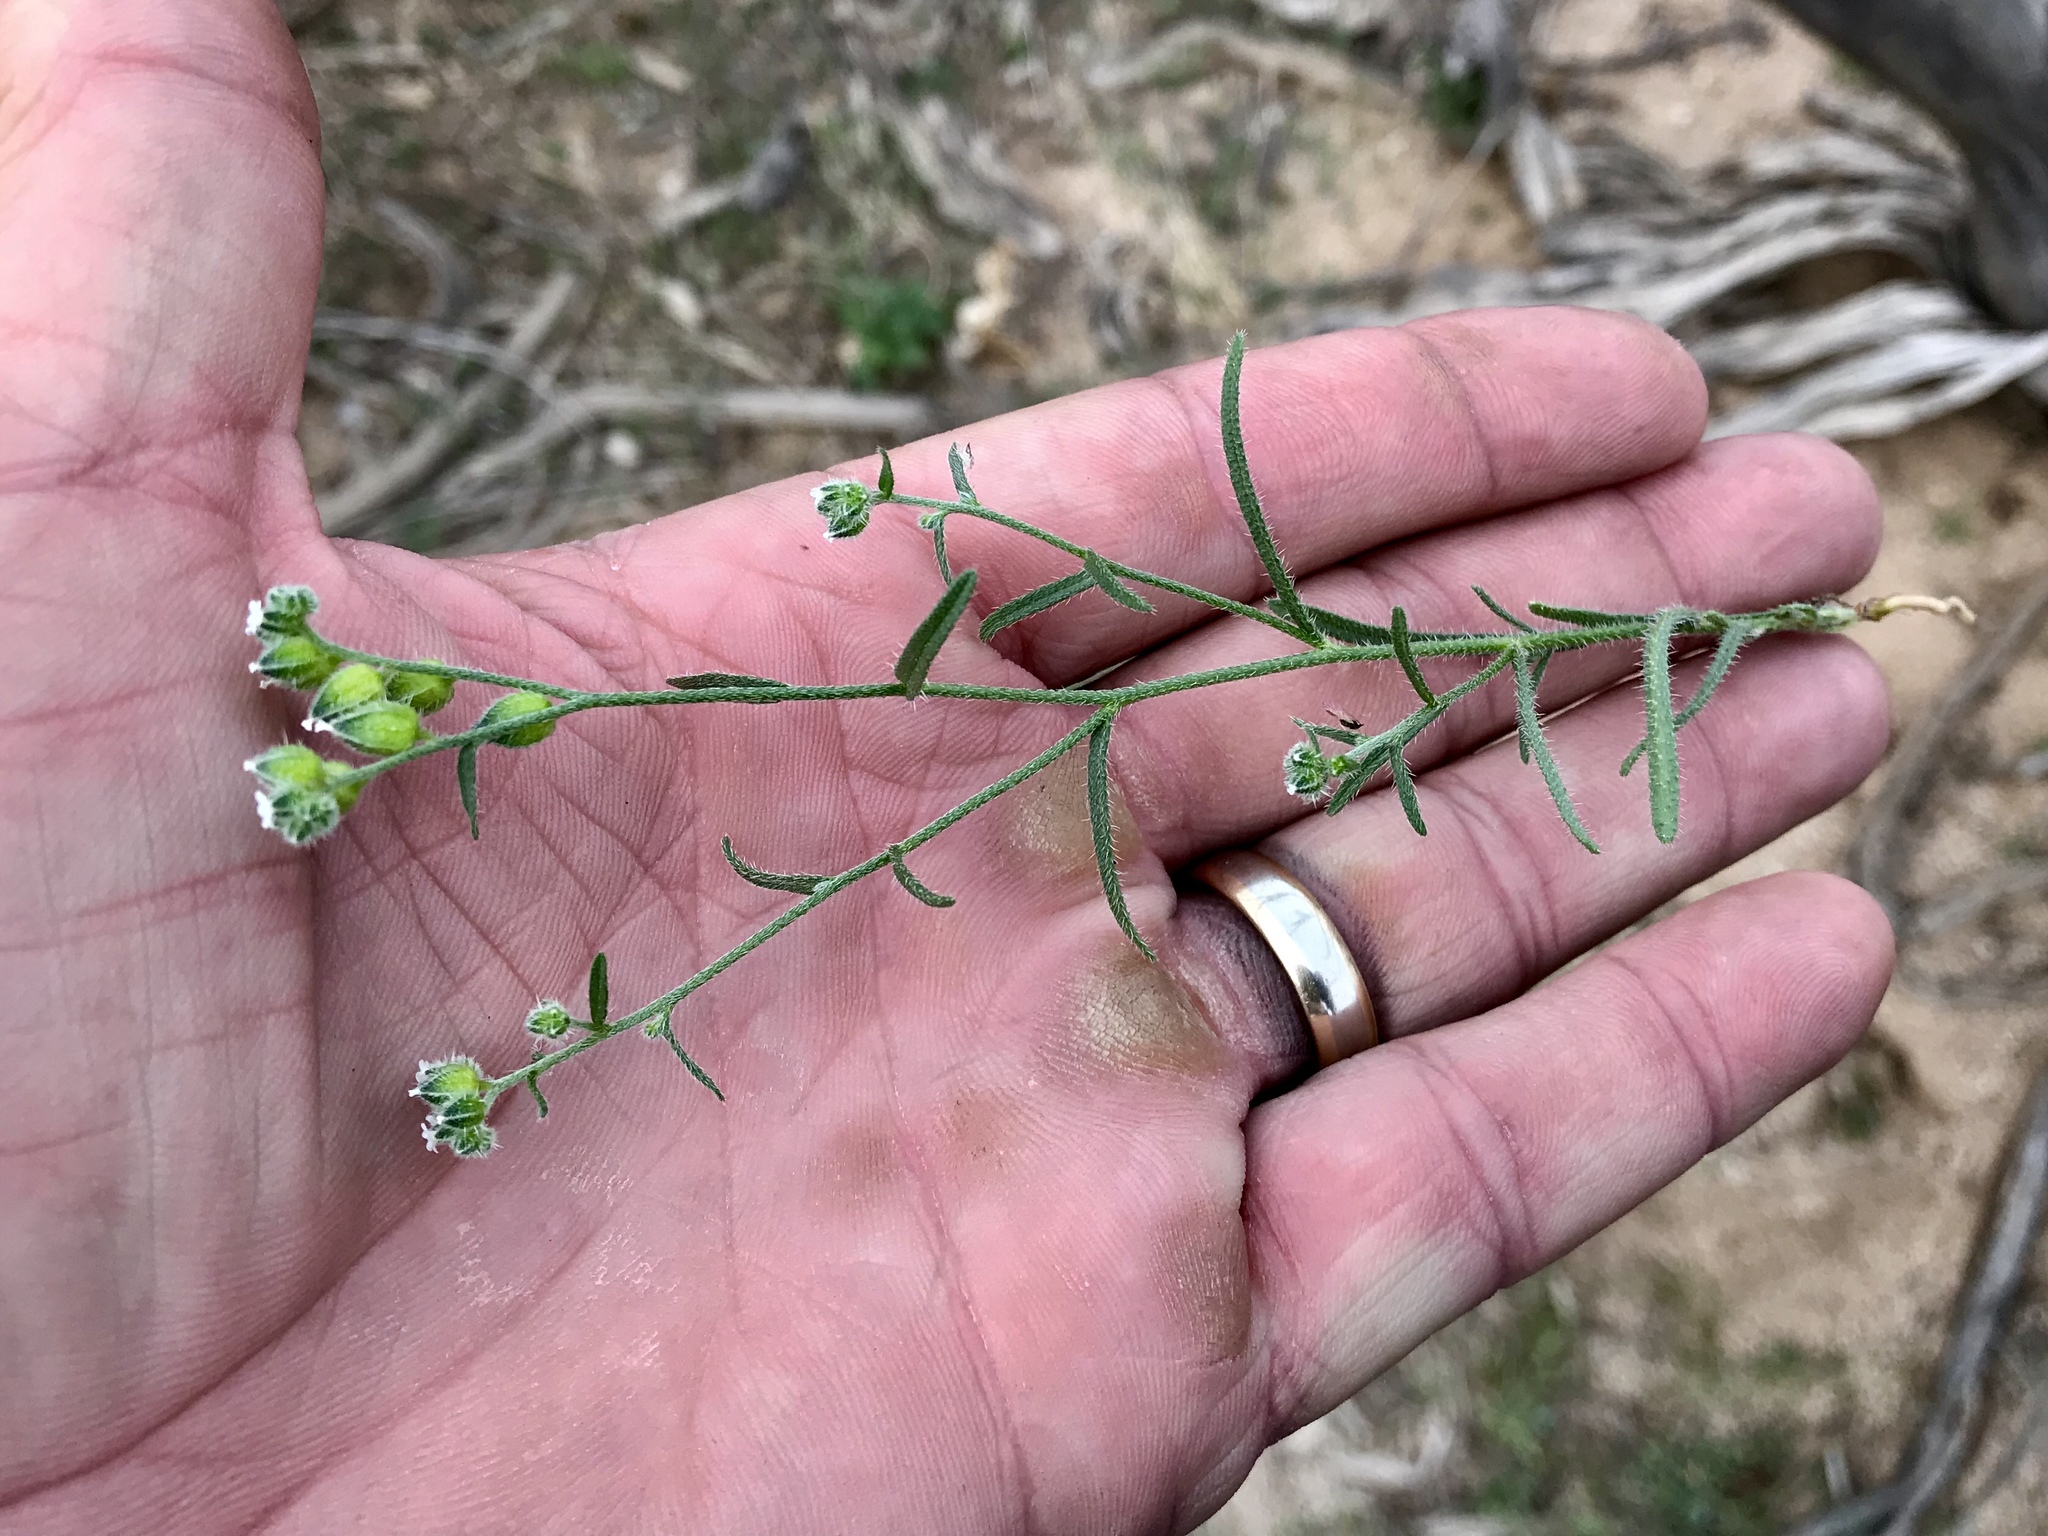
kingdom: Plantae
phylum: Tracheophyta
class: Magnoliopsida
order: Boraginales
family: Boraginaceae
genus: Cryptantha
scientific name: Cryptantha pterocarya
